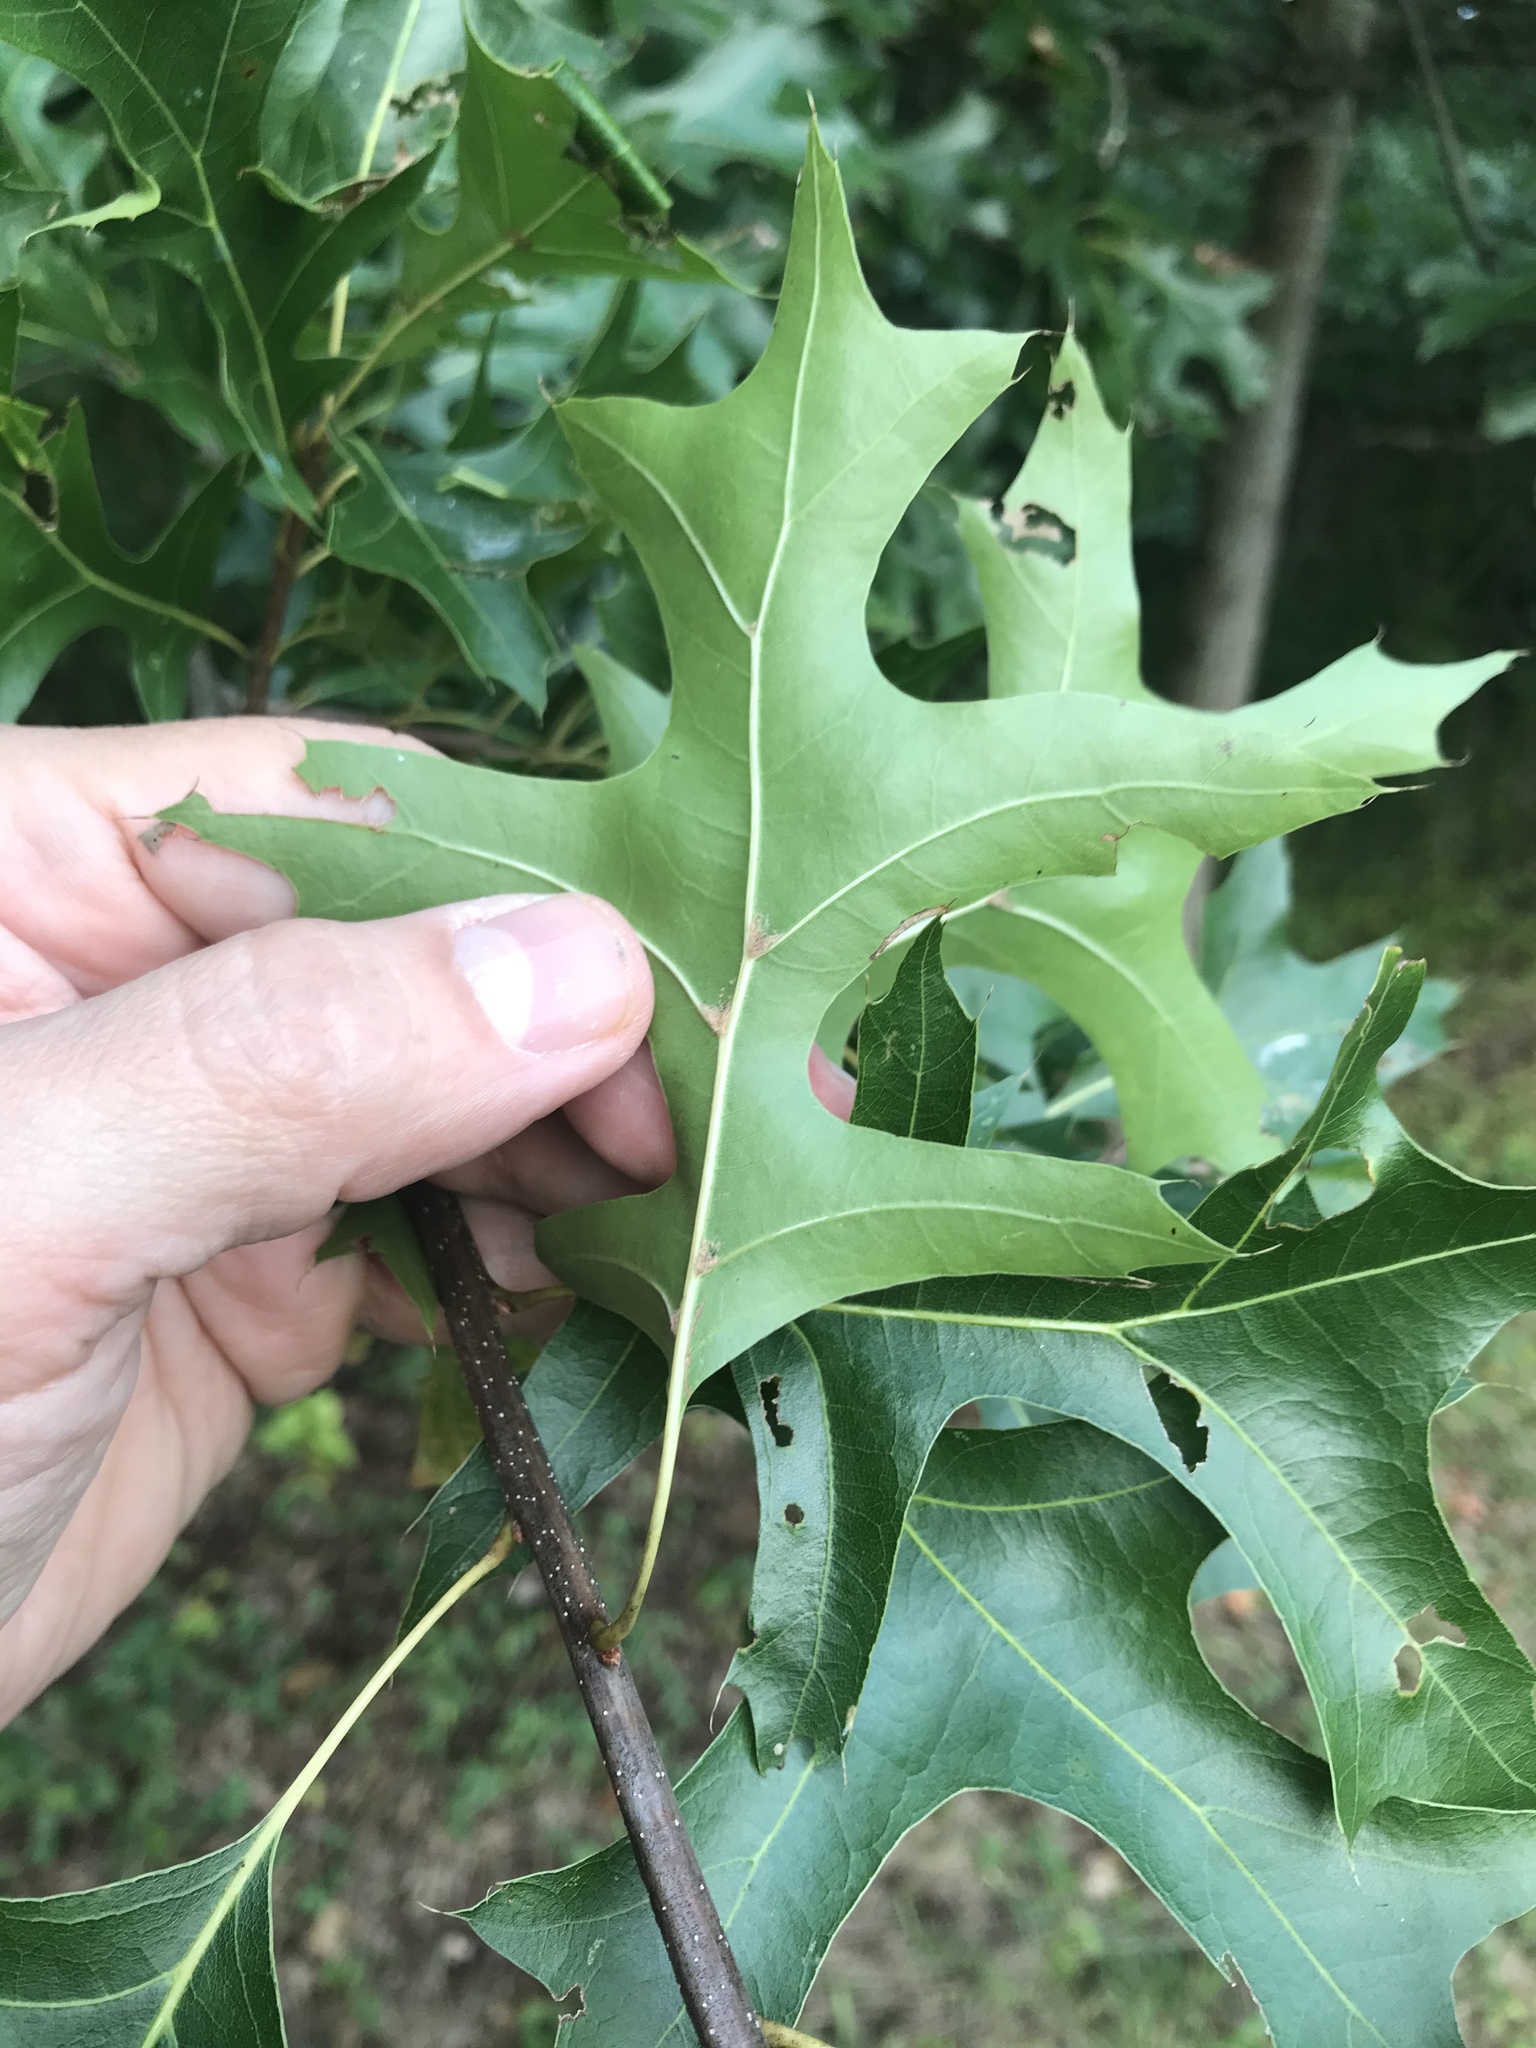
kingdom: Plantae
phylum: Tracheophyta
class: Magnoliopsida
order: Fagales
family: Fagaceae
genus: Quercus
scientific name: Quercus palustris
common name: Pin oak
